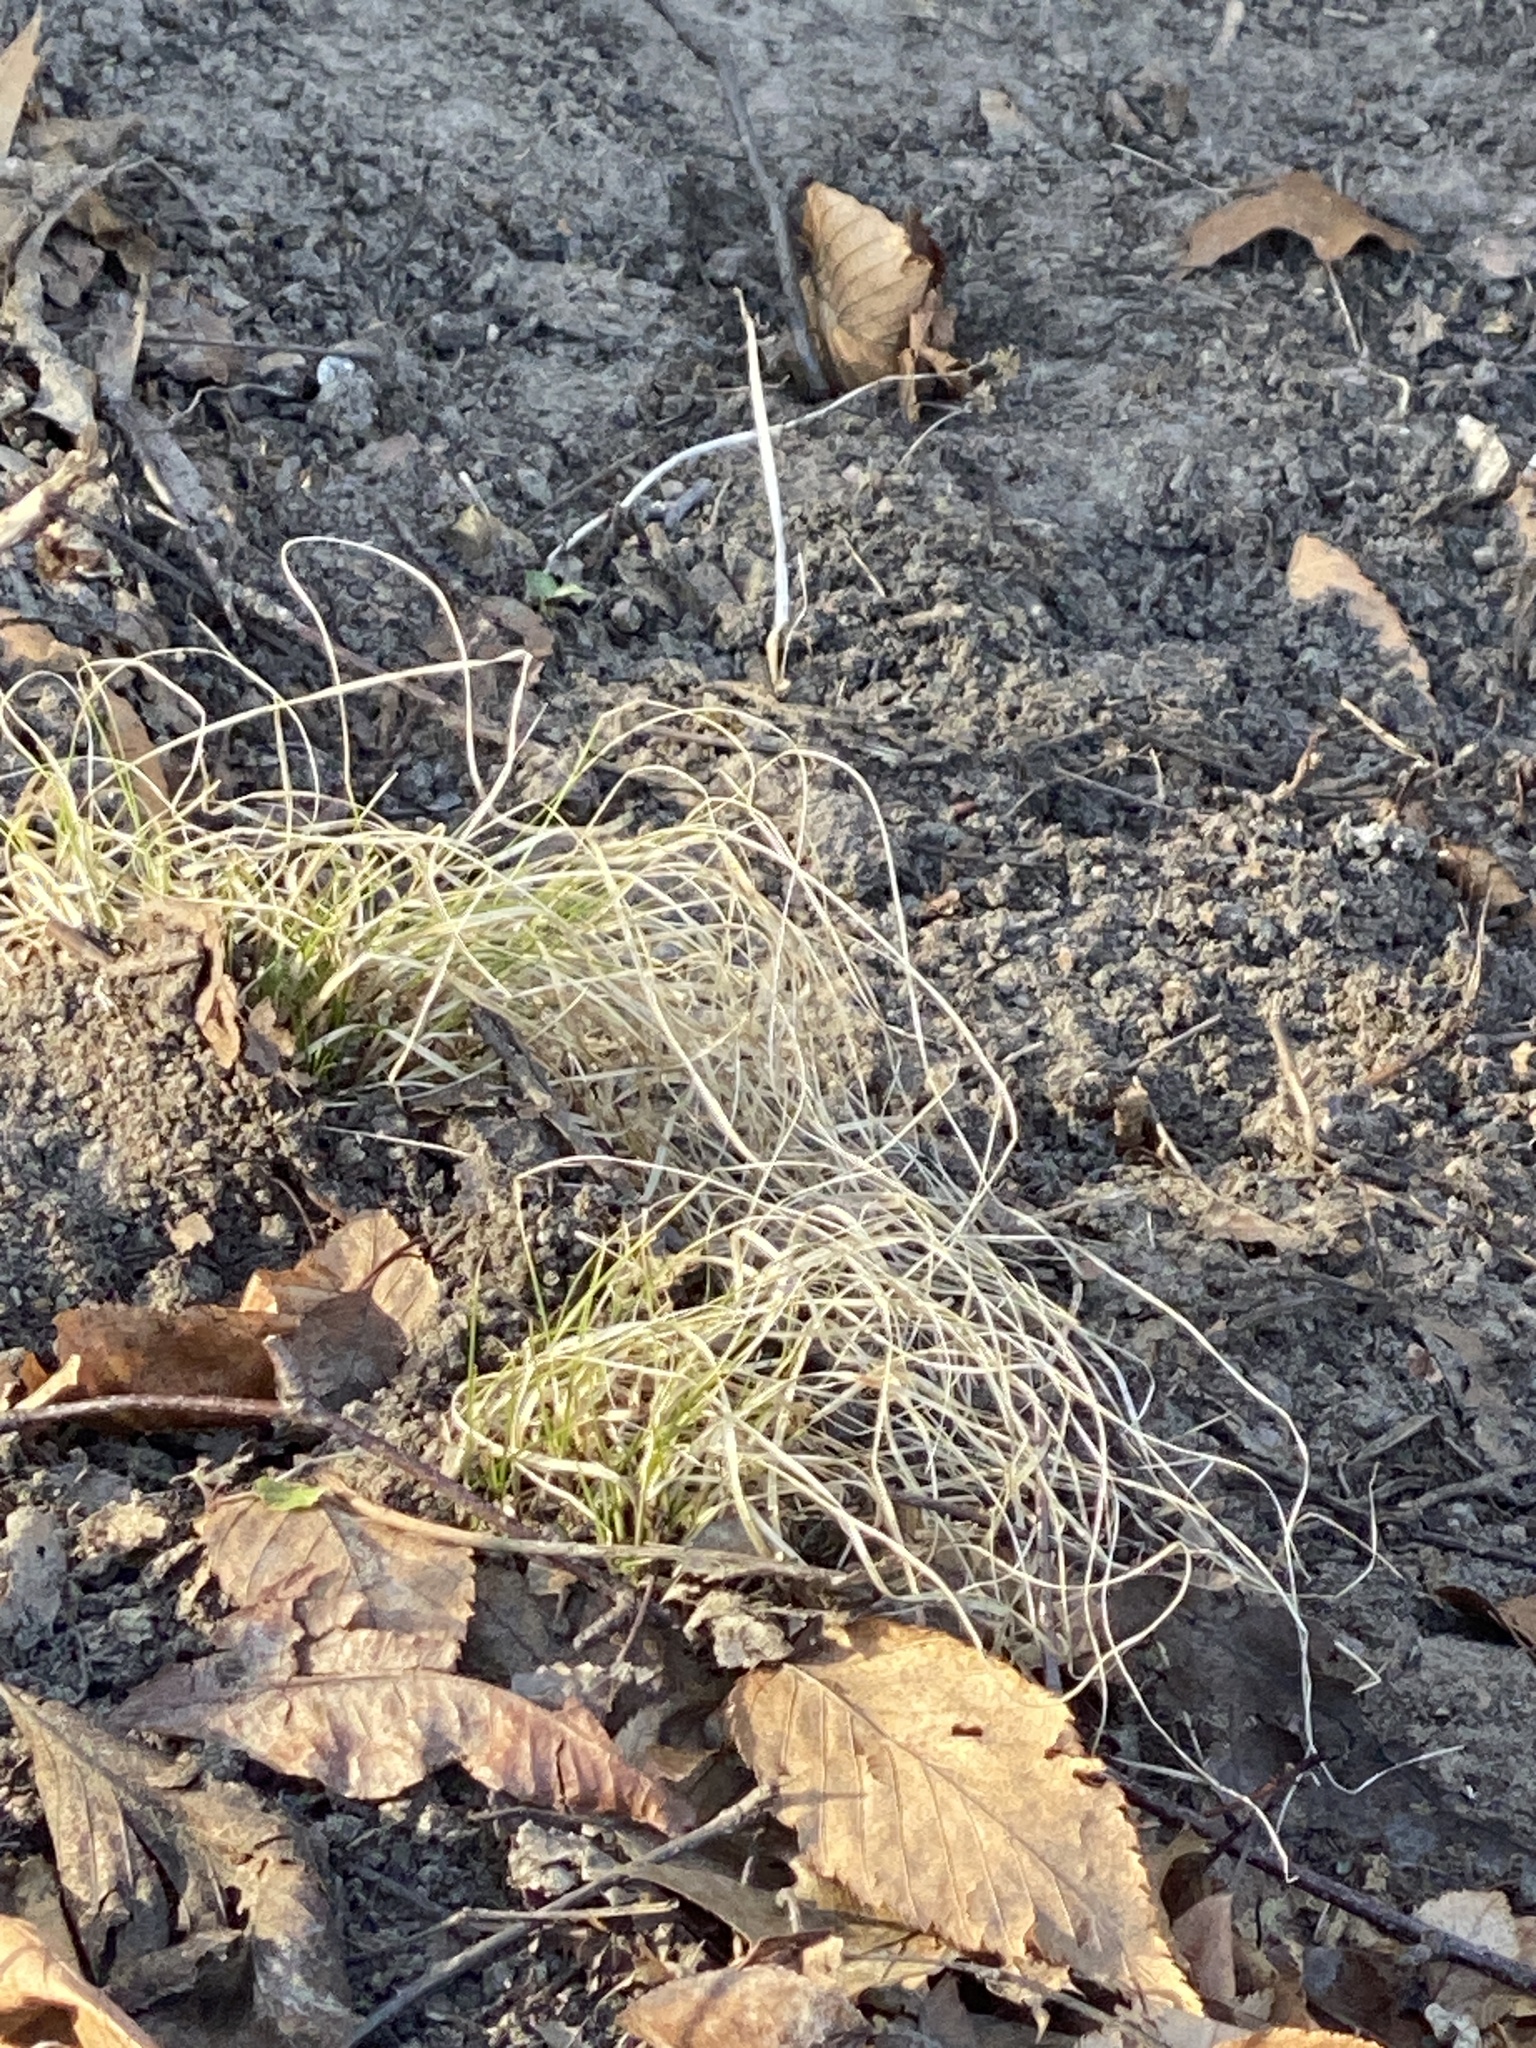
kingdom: Plantae
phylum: Tracheophyta
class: Liliopsida
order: Poales
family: Poaceae
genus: Danthonia
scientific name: Danthonia spicata
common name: Common wild oatgrass
